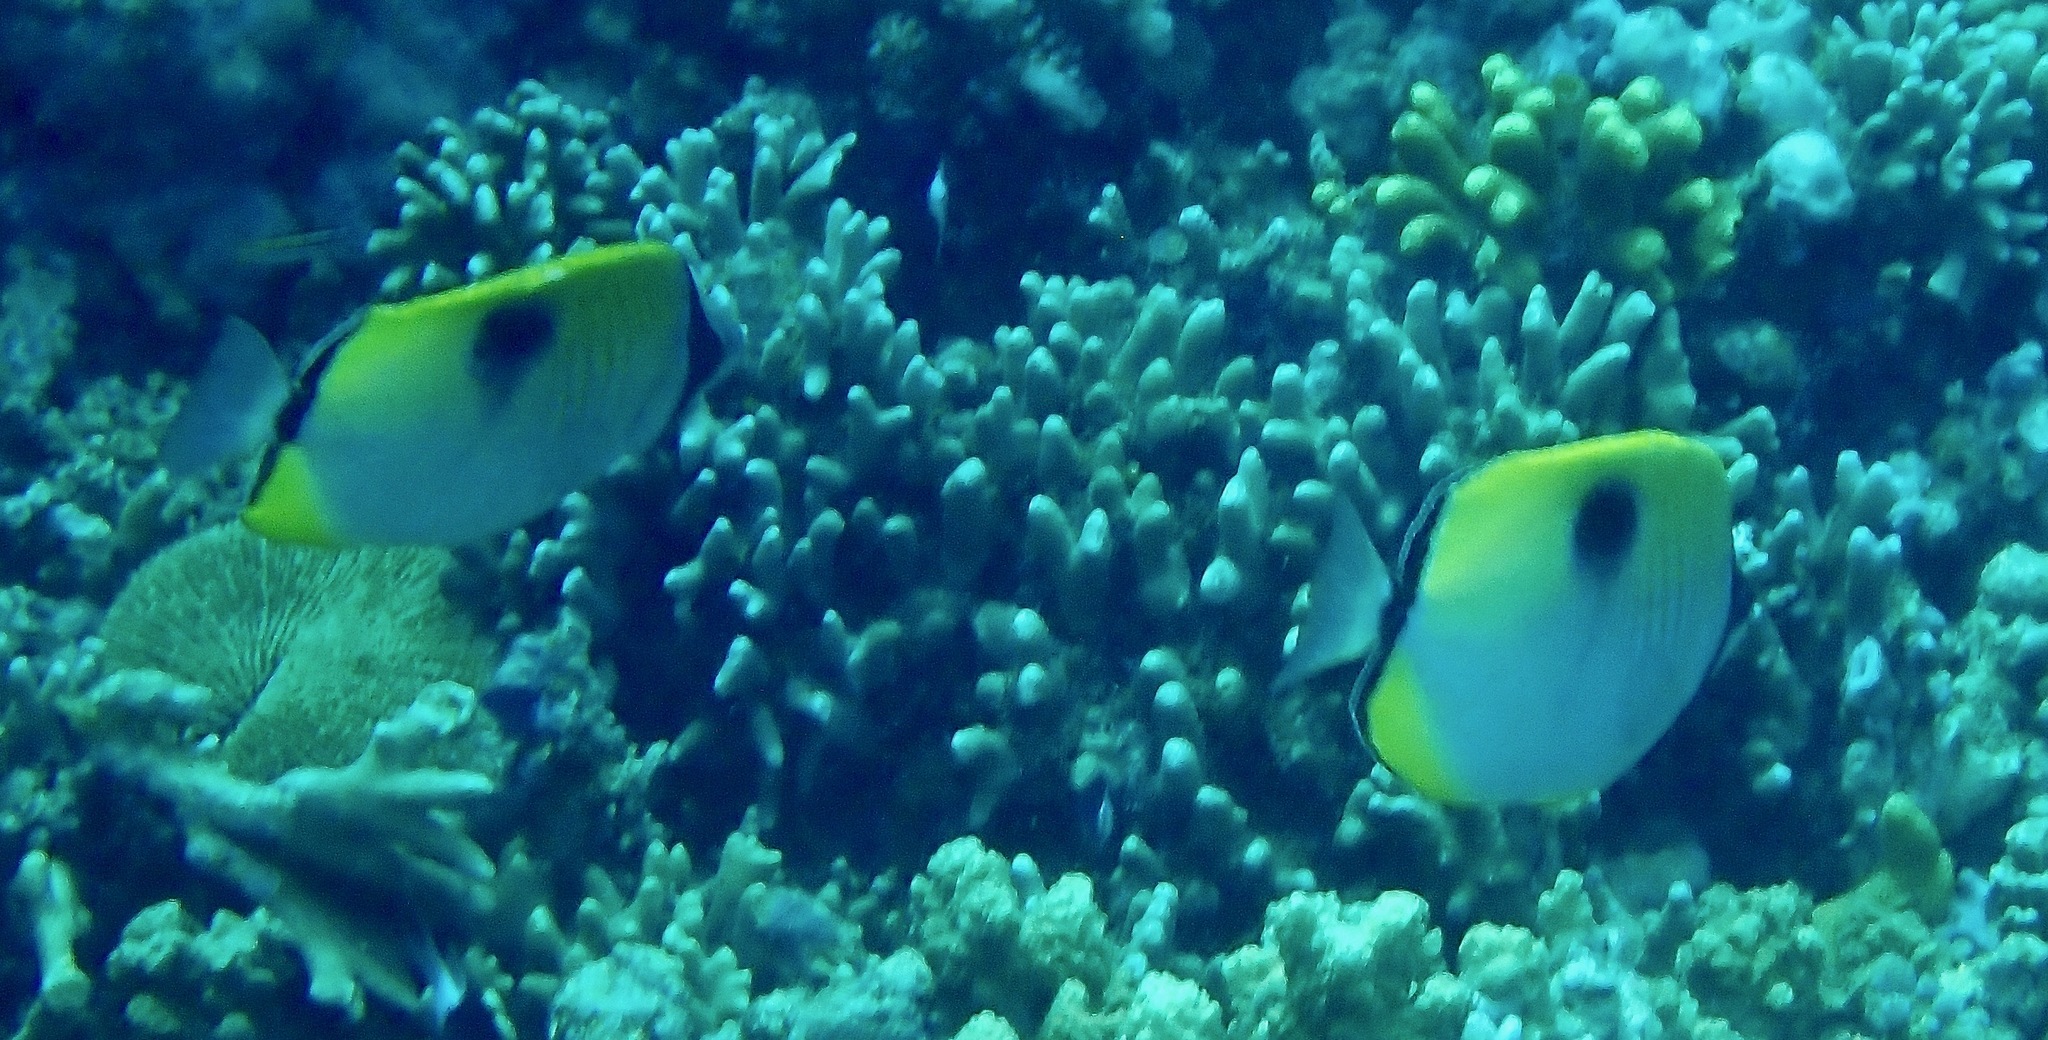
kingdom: Animalia
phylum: Chordata
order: Perciformes
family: Chaetodontidae
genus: Chaetodon
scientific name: Chaetodon unimaculatus
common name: Teardrop butterflyfish
